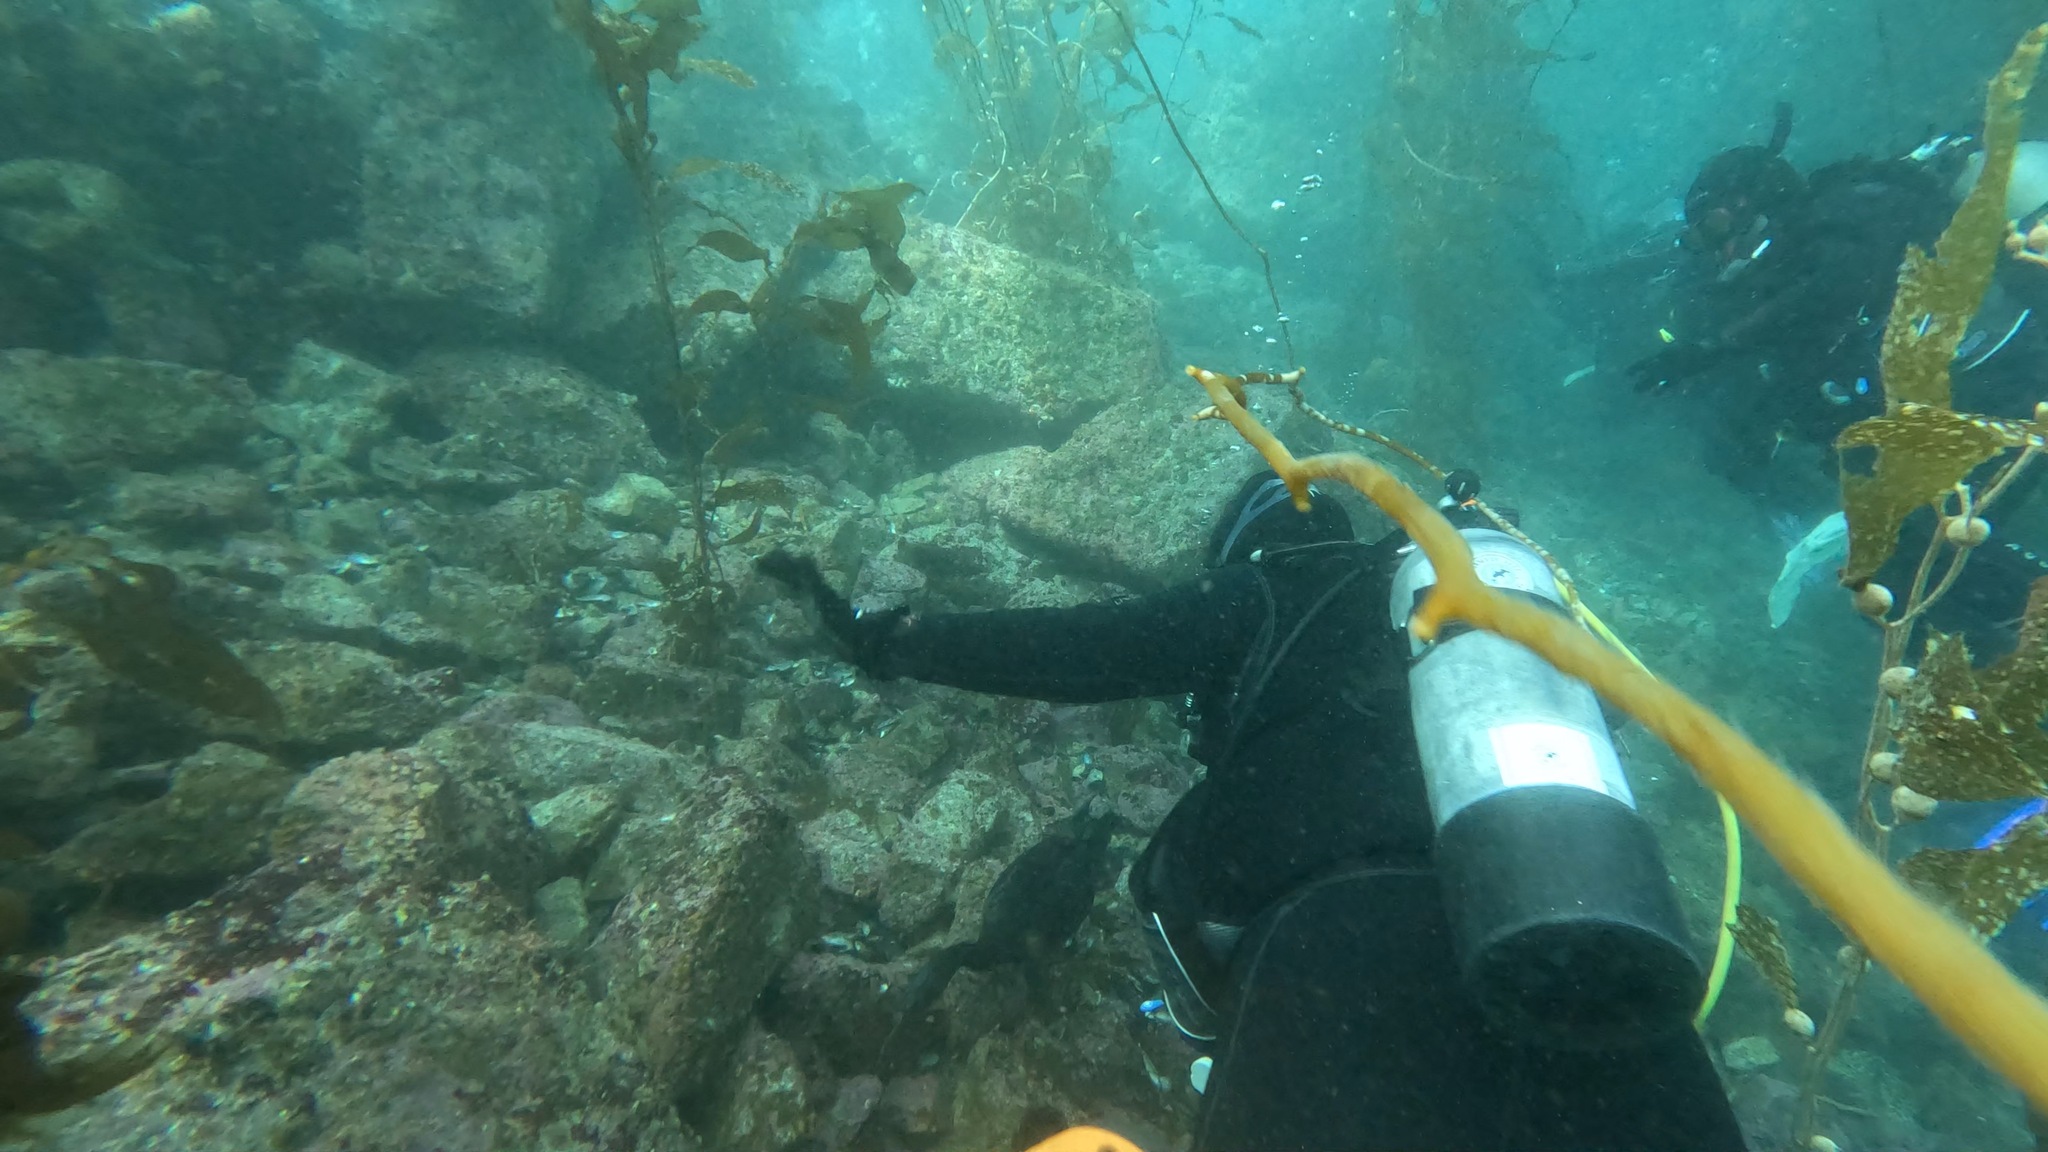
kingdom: Animalia
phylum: Chordata
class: Aves
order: Suliformes
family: Phalacrocoracidae
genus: Urile
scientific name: Urile penicillatus
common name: Brandt's cormorant
